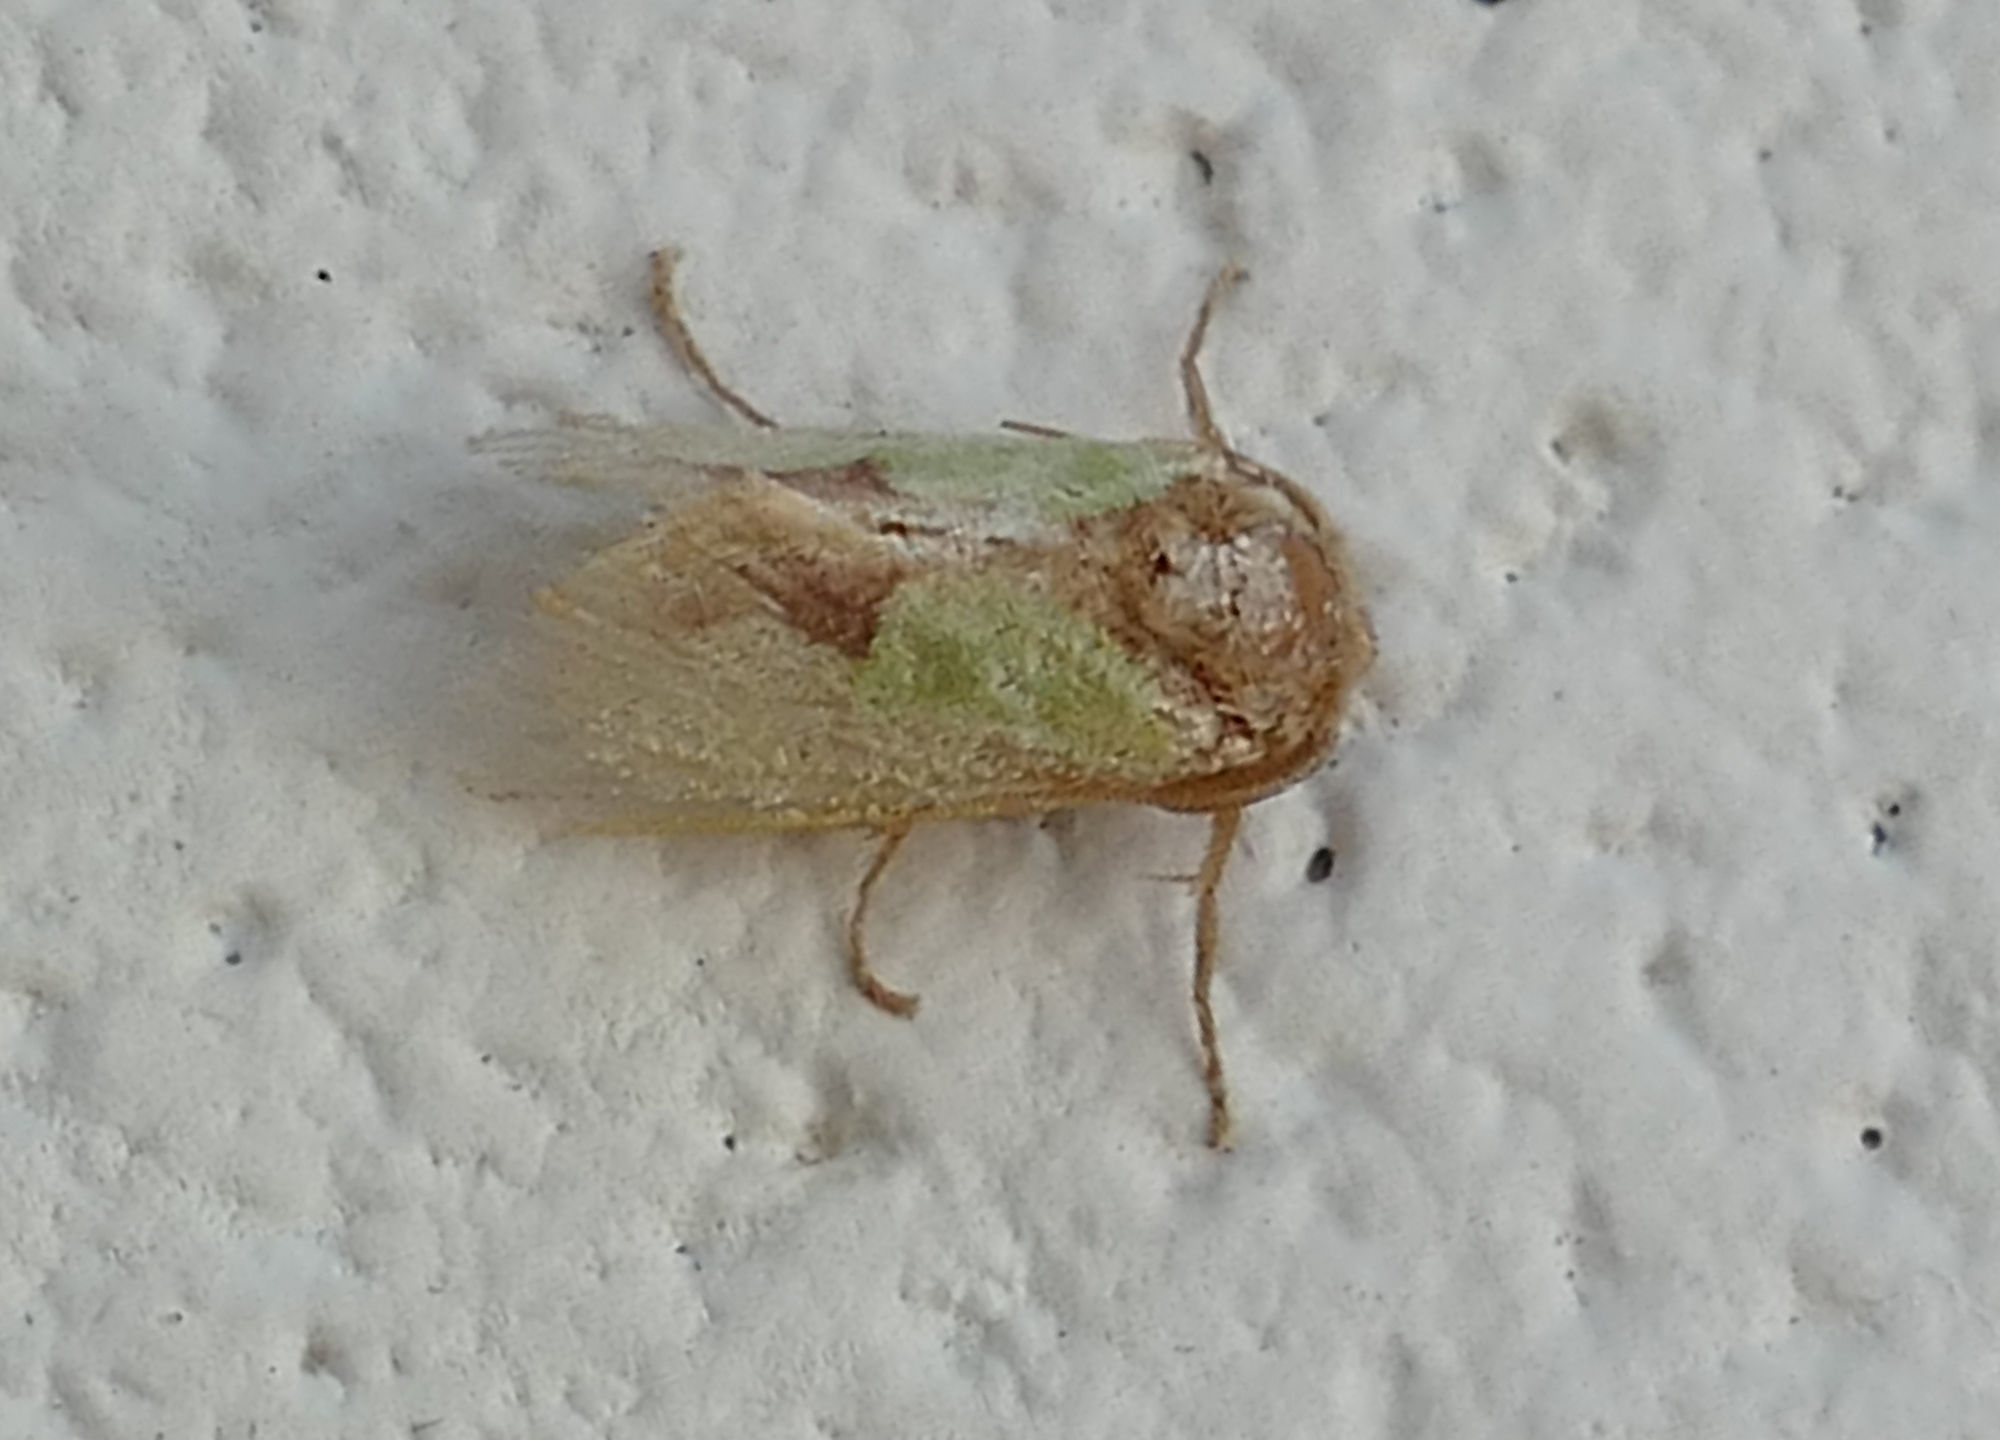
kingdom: Animalia
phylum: Arthropoda
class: Insecta
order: Lepidoptera
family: Limacodidae
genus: Euclea
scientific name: Euclea incisa
